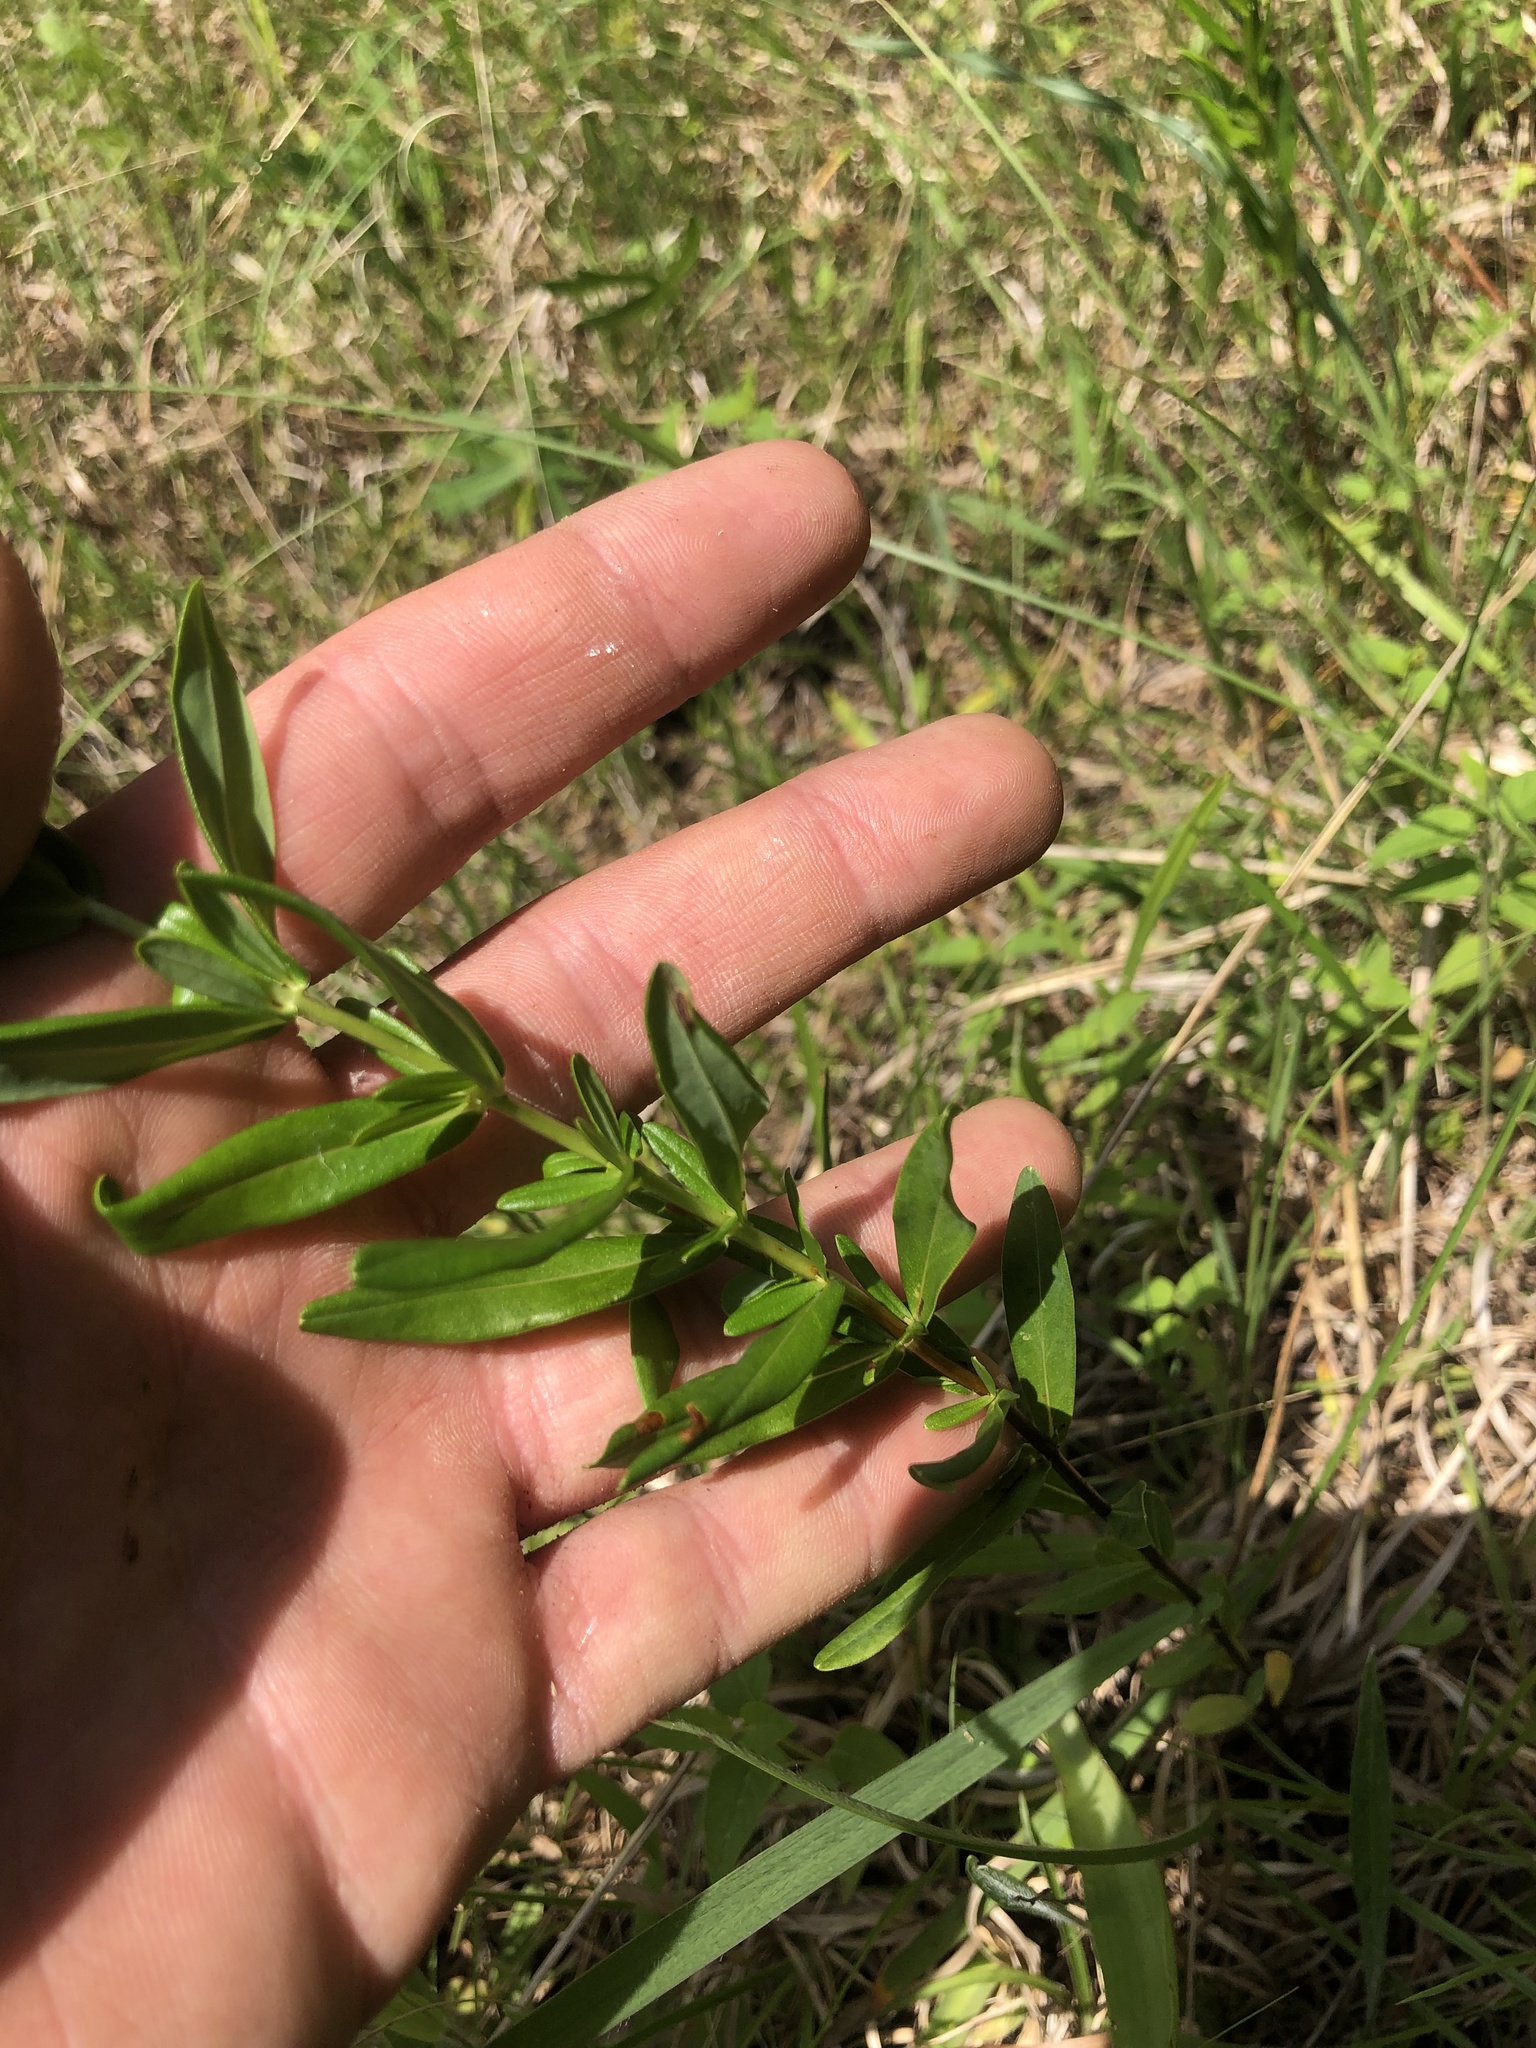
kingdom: Plantae
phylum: Tracheophyta
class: Magnoliopsida
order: Malpighiales
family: Hypericaceae
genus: Hypericum
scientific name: Hypericum sphaerocarpum
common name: Round-fruited st. john's-wort
